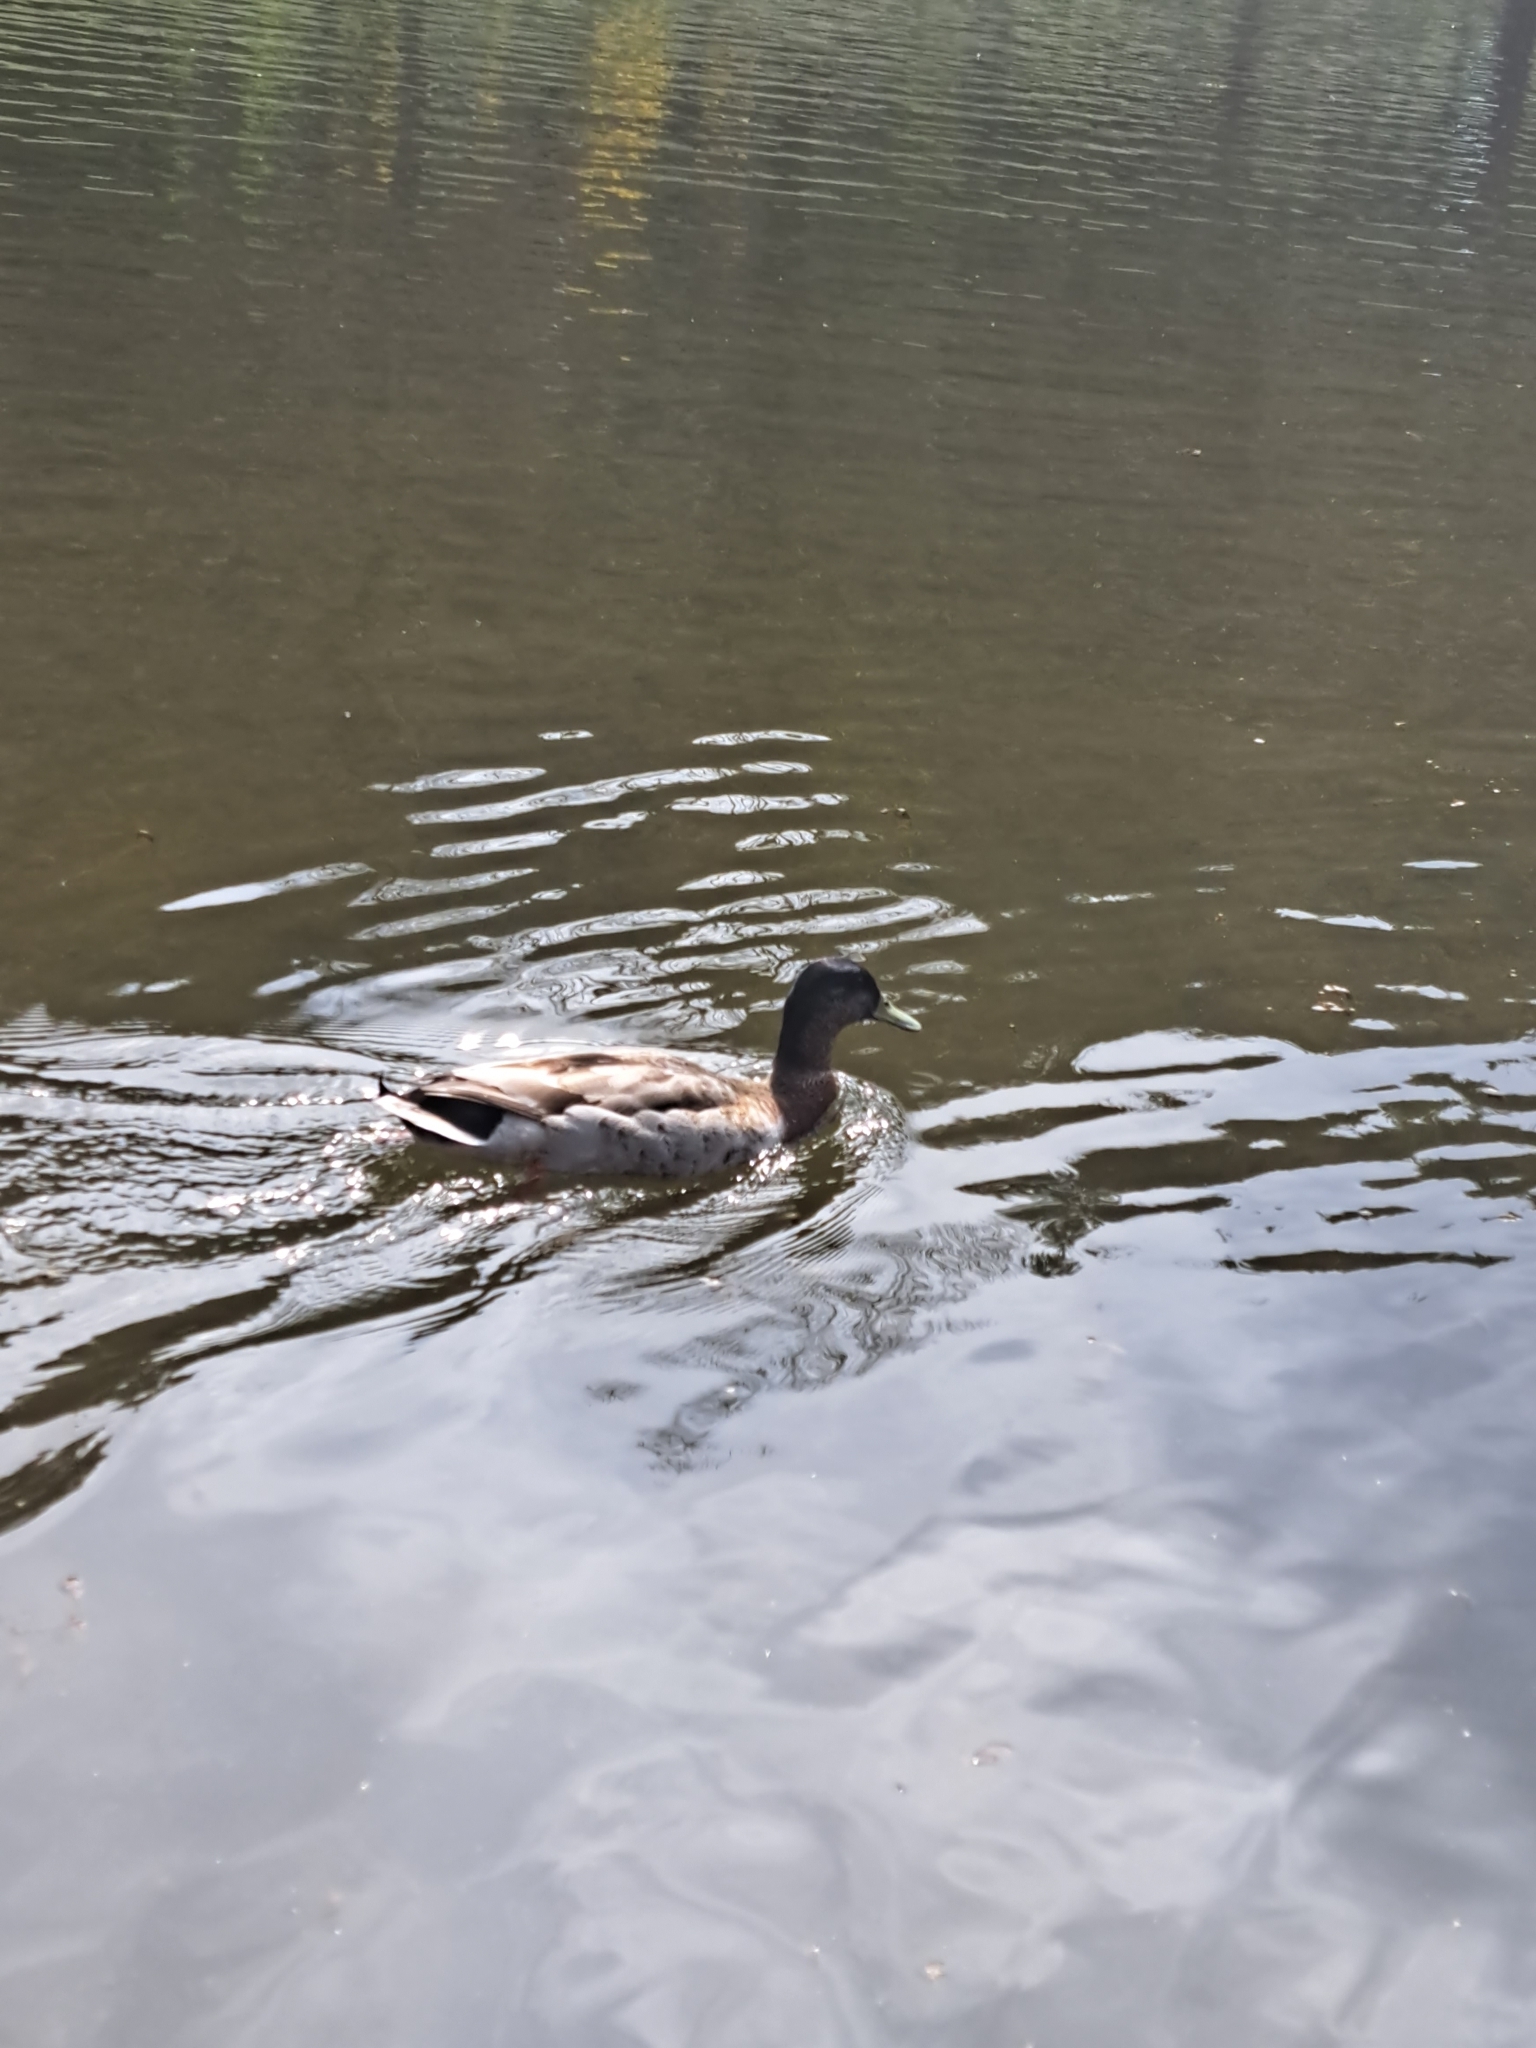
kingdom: Animalia
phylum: Chordata
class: Aves
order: Anseriformes
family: Anatidae
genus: Anas
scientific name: Anas platyrhynchos
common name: Mallard
